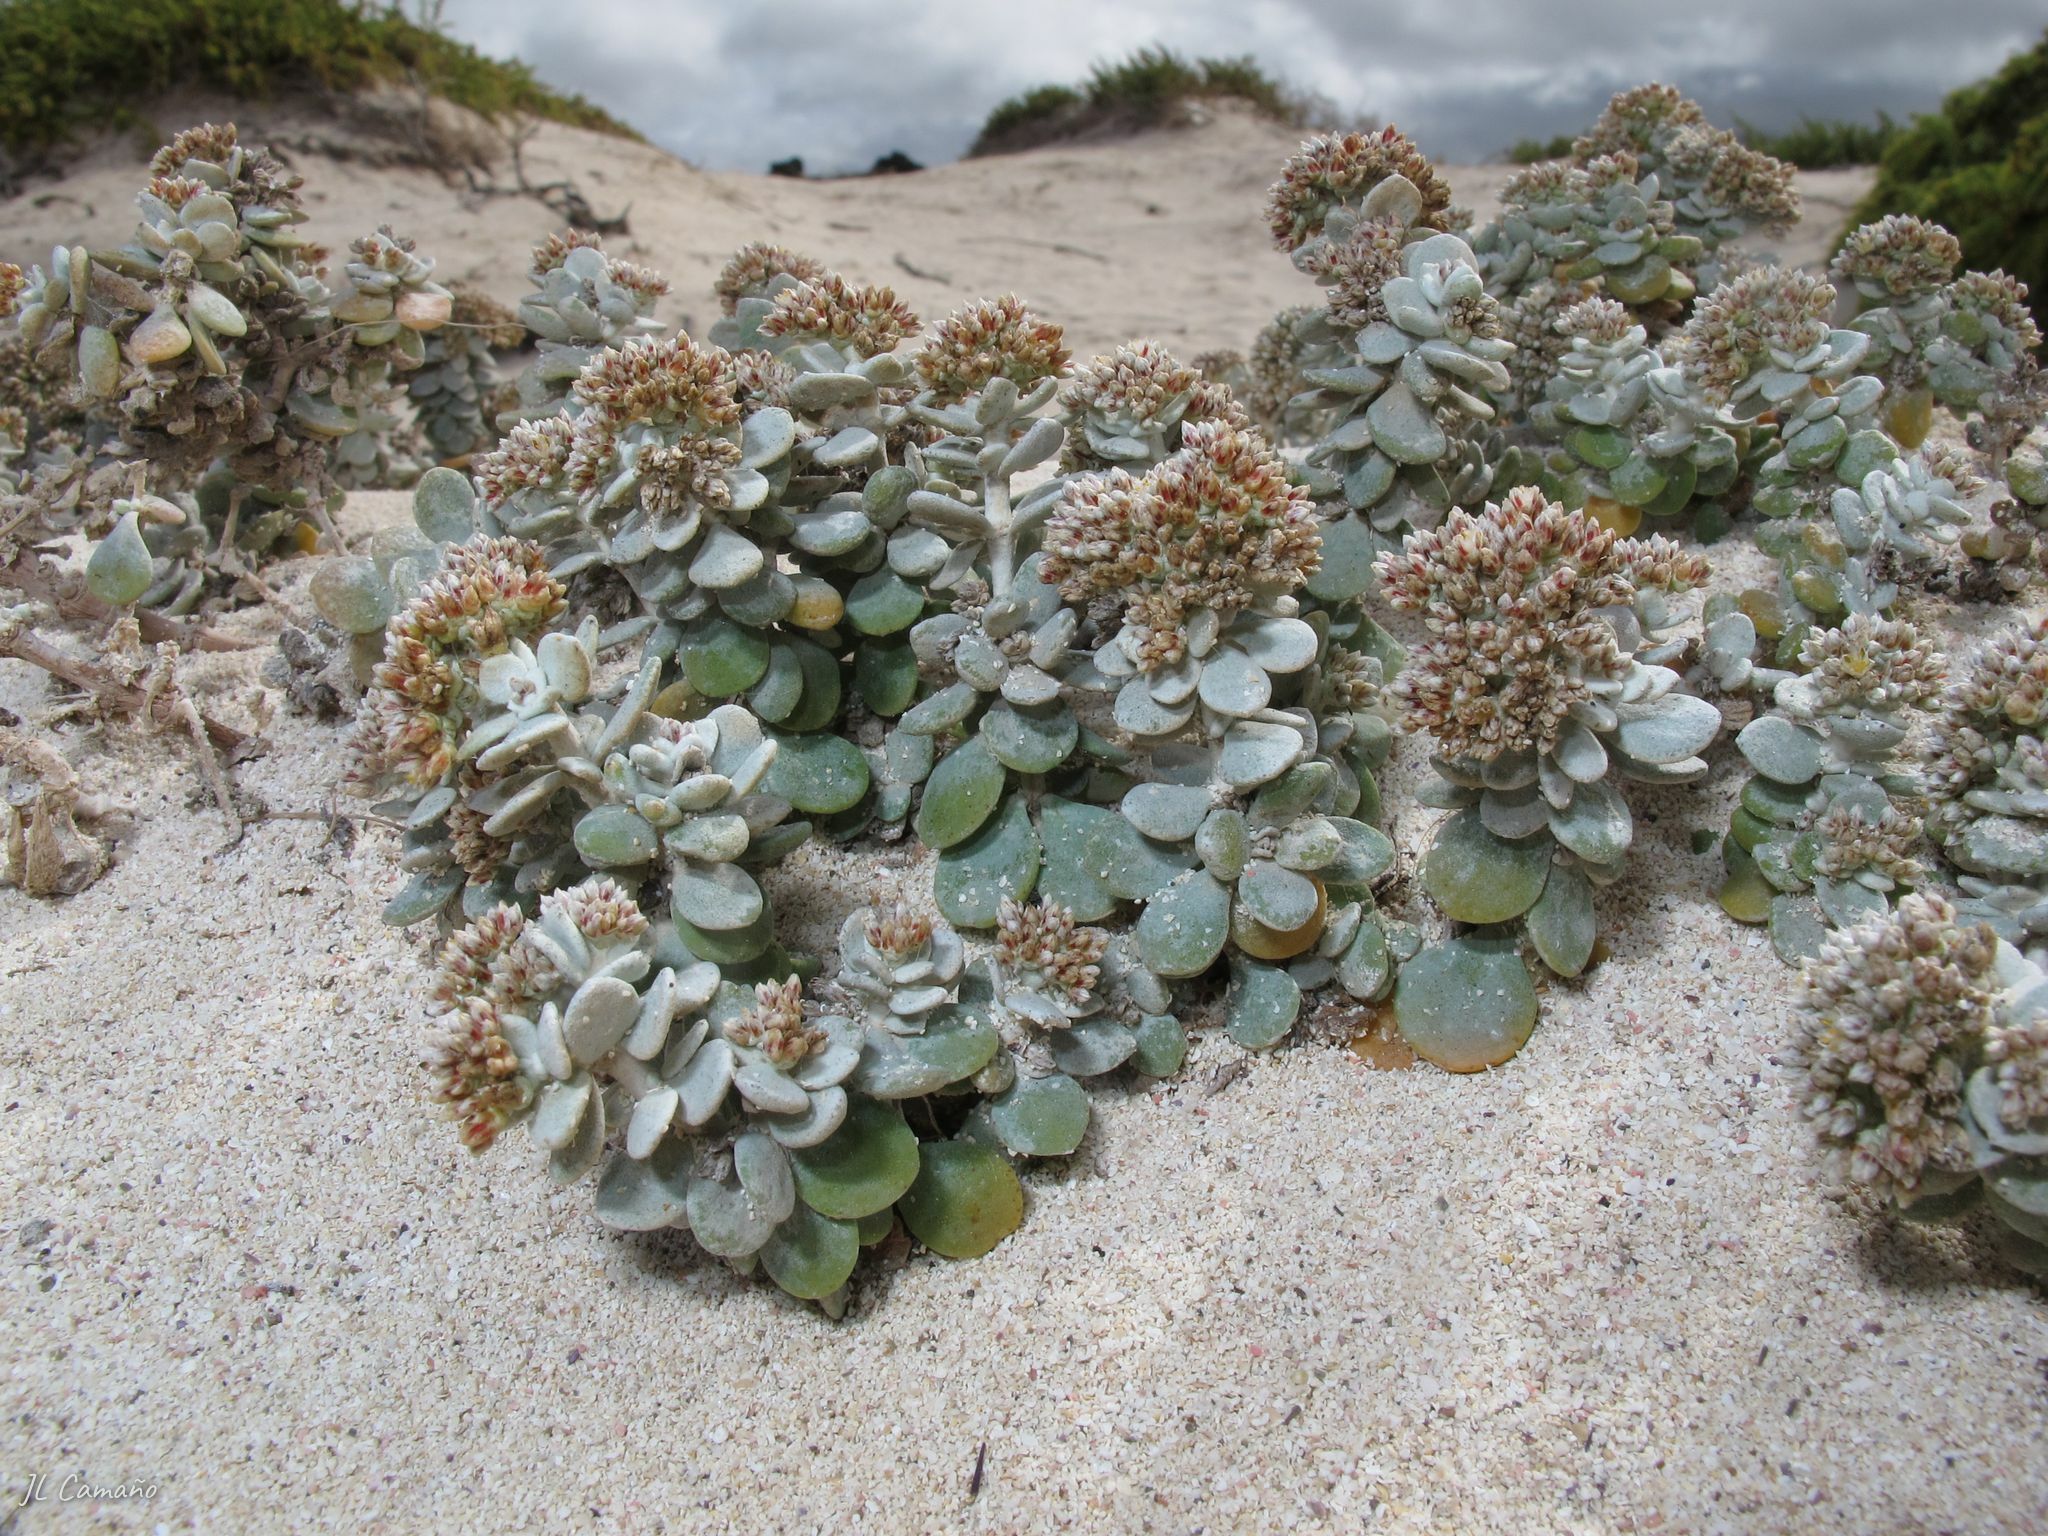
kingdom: Plantae
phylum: Tracheophyta
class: Magnoliopsida
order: Caryophyllales
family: Caryophyllaceae
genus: Polycarpaea
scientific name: Polycarpaea nivea
